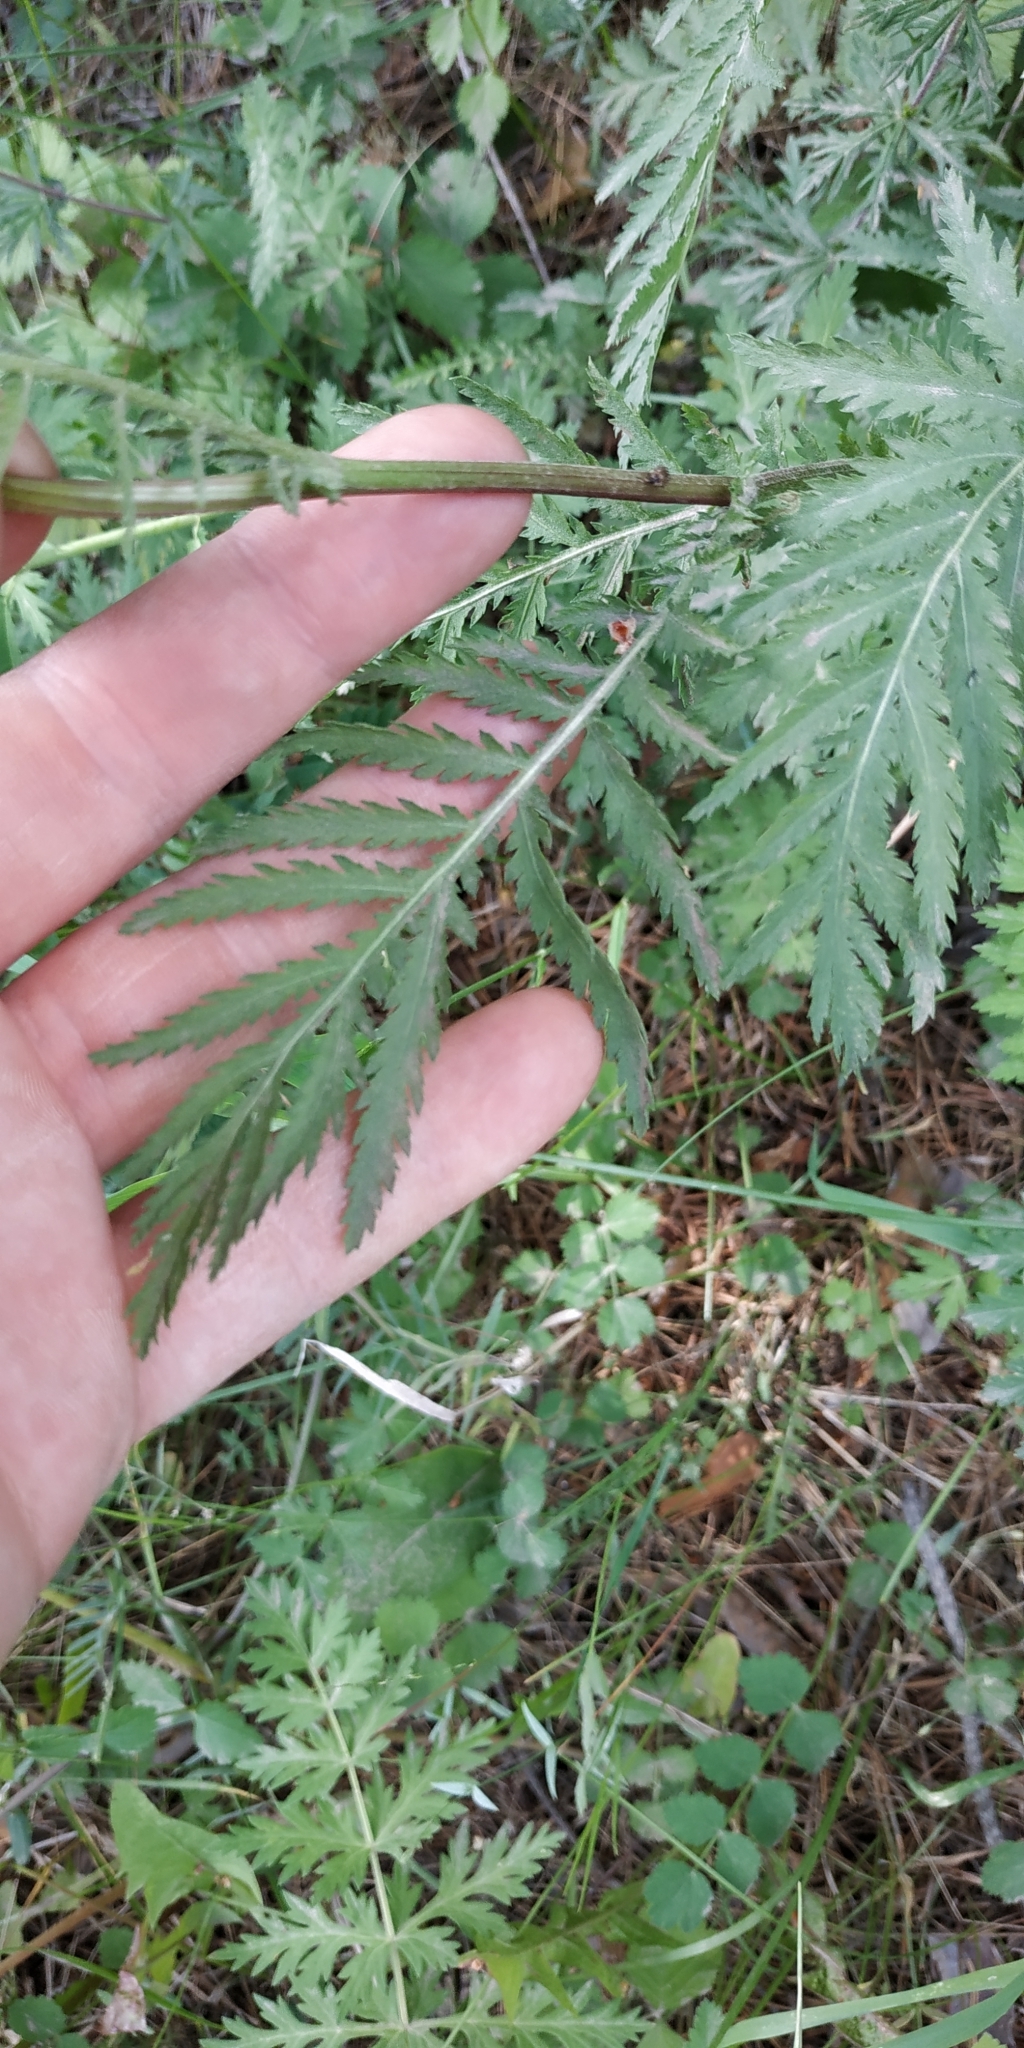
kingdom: Plantae
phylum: Tracheophyta
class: Magnoliopsida
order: Asterales
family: Asteraceae
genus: Tanacetum
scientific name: Tanacetum vulgare
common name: Common tansy
